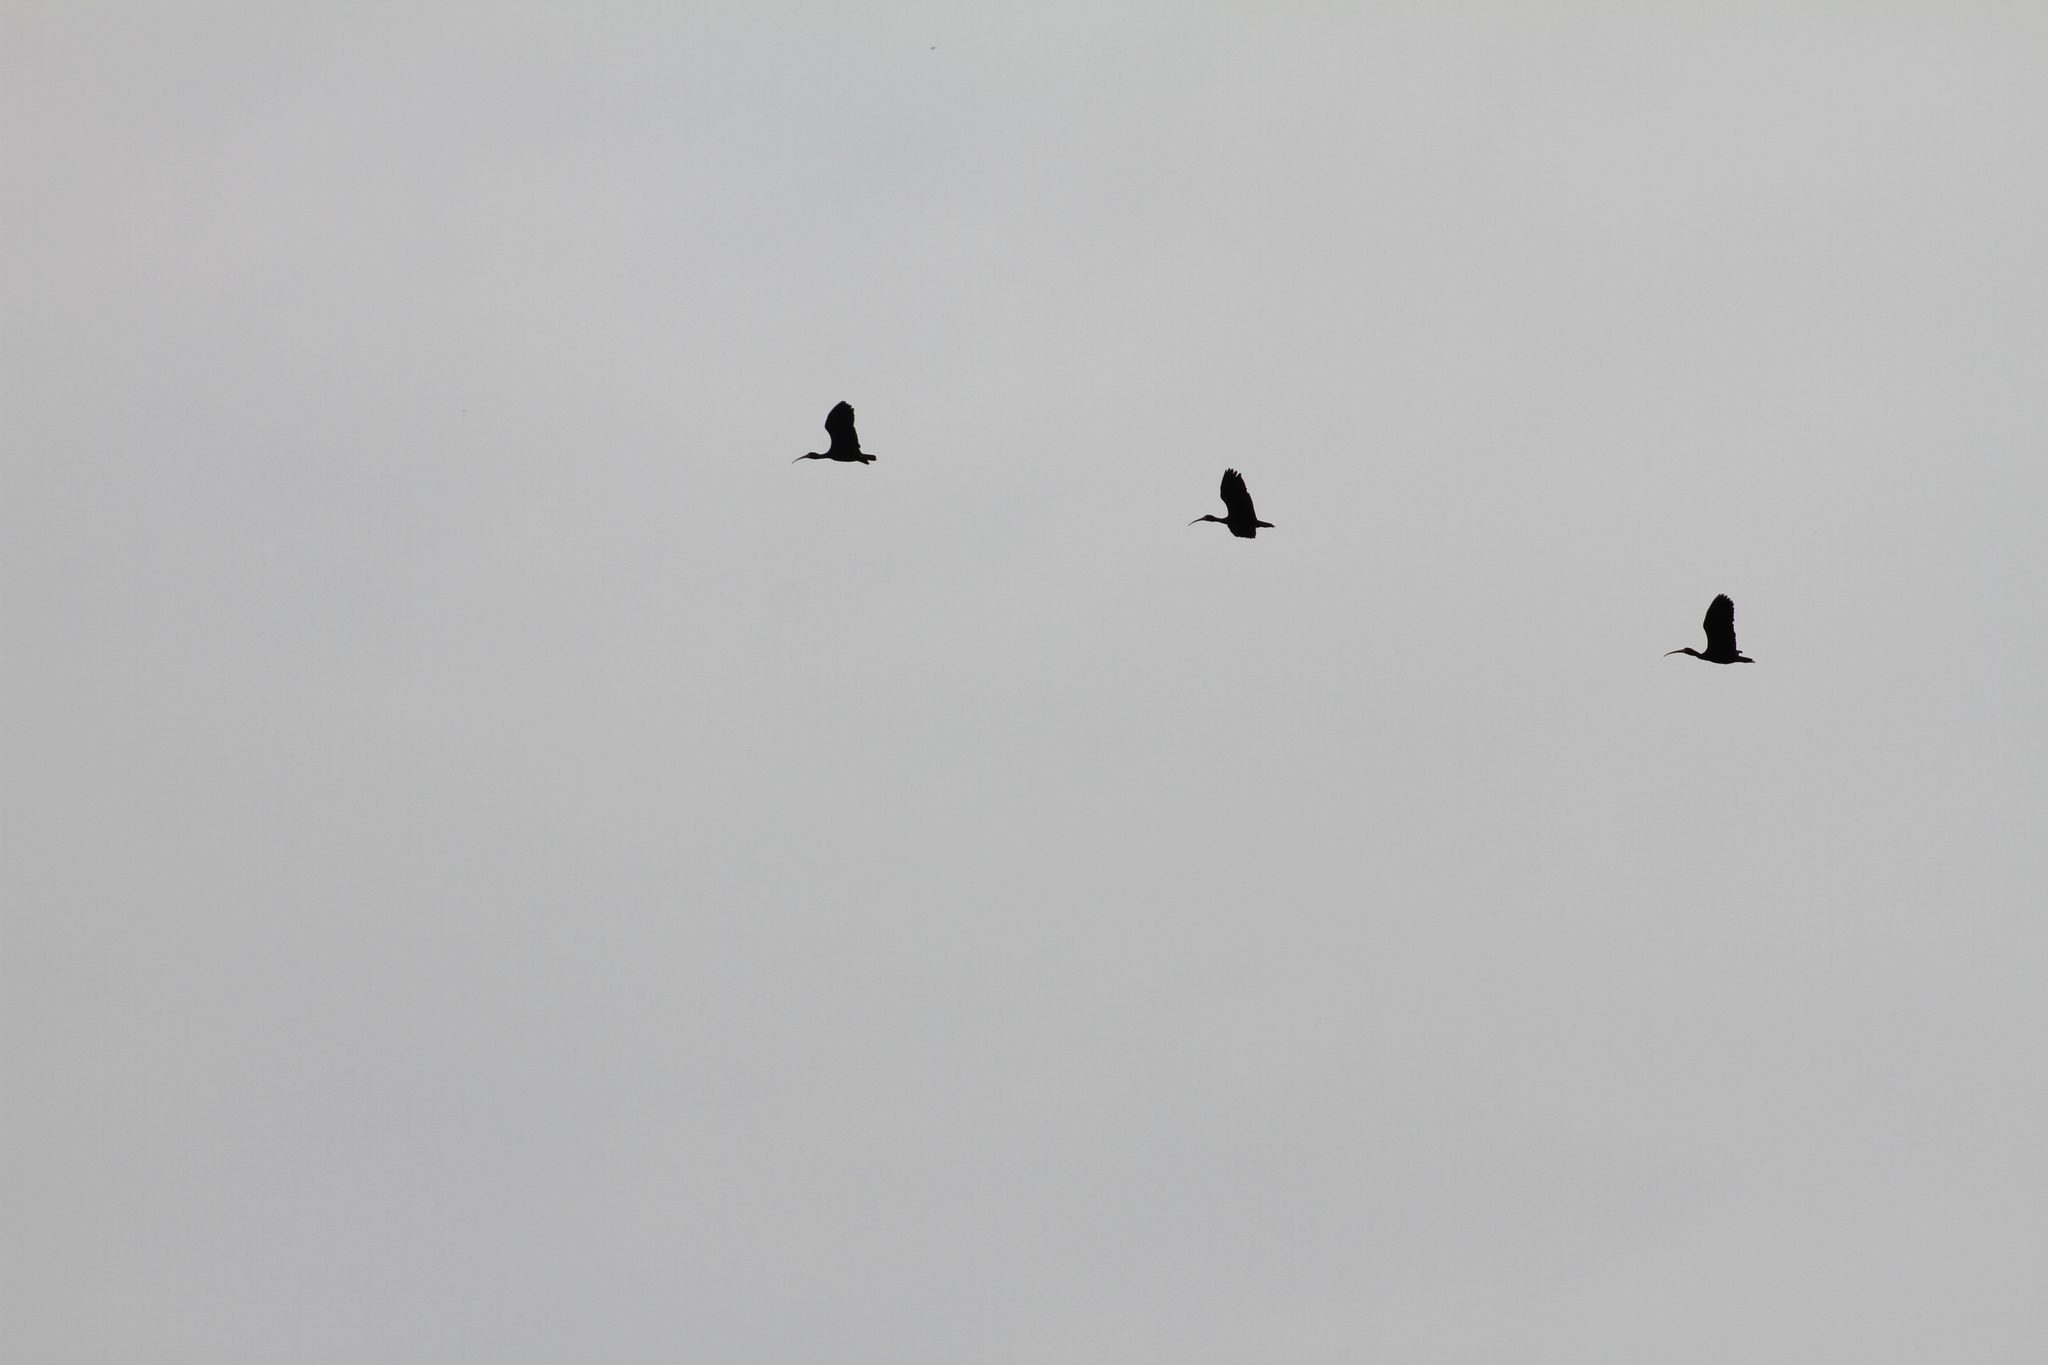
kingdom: Animalia
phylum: Chordata
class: Aves
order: Pelecaniformes
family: Threskiornithidae
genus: Phimosus
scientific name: Phimosus infuscatus
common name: Bare-faced ibis
